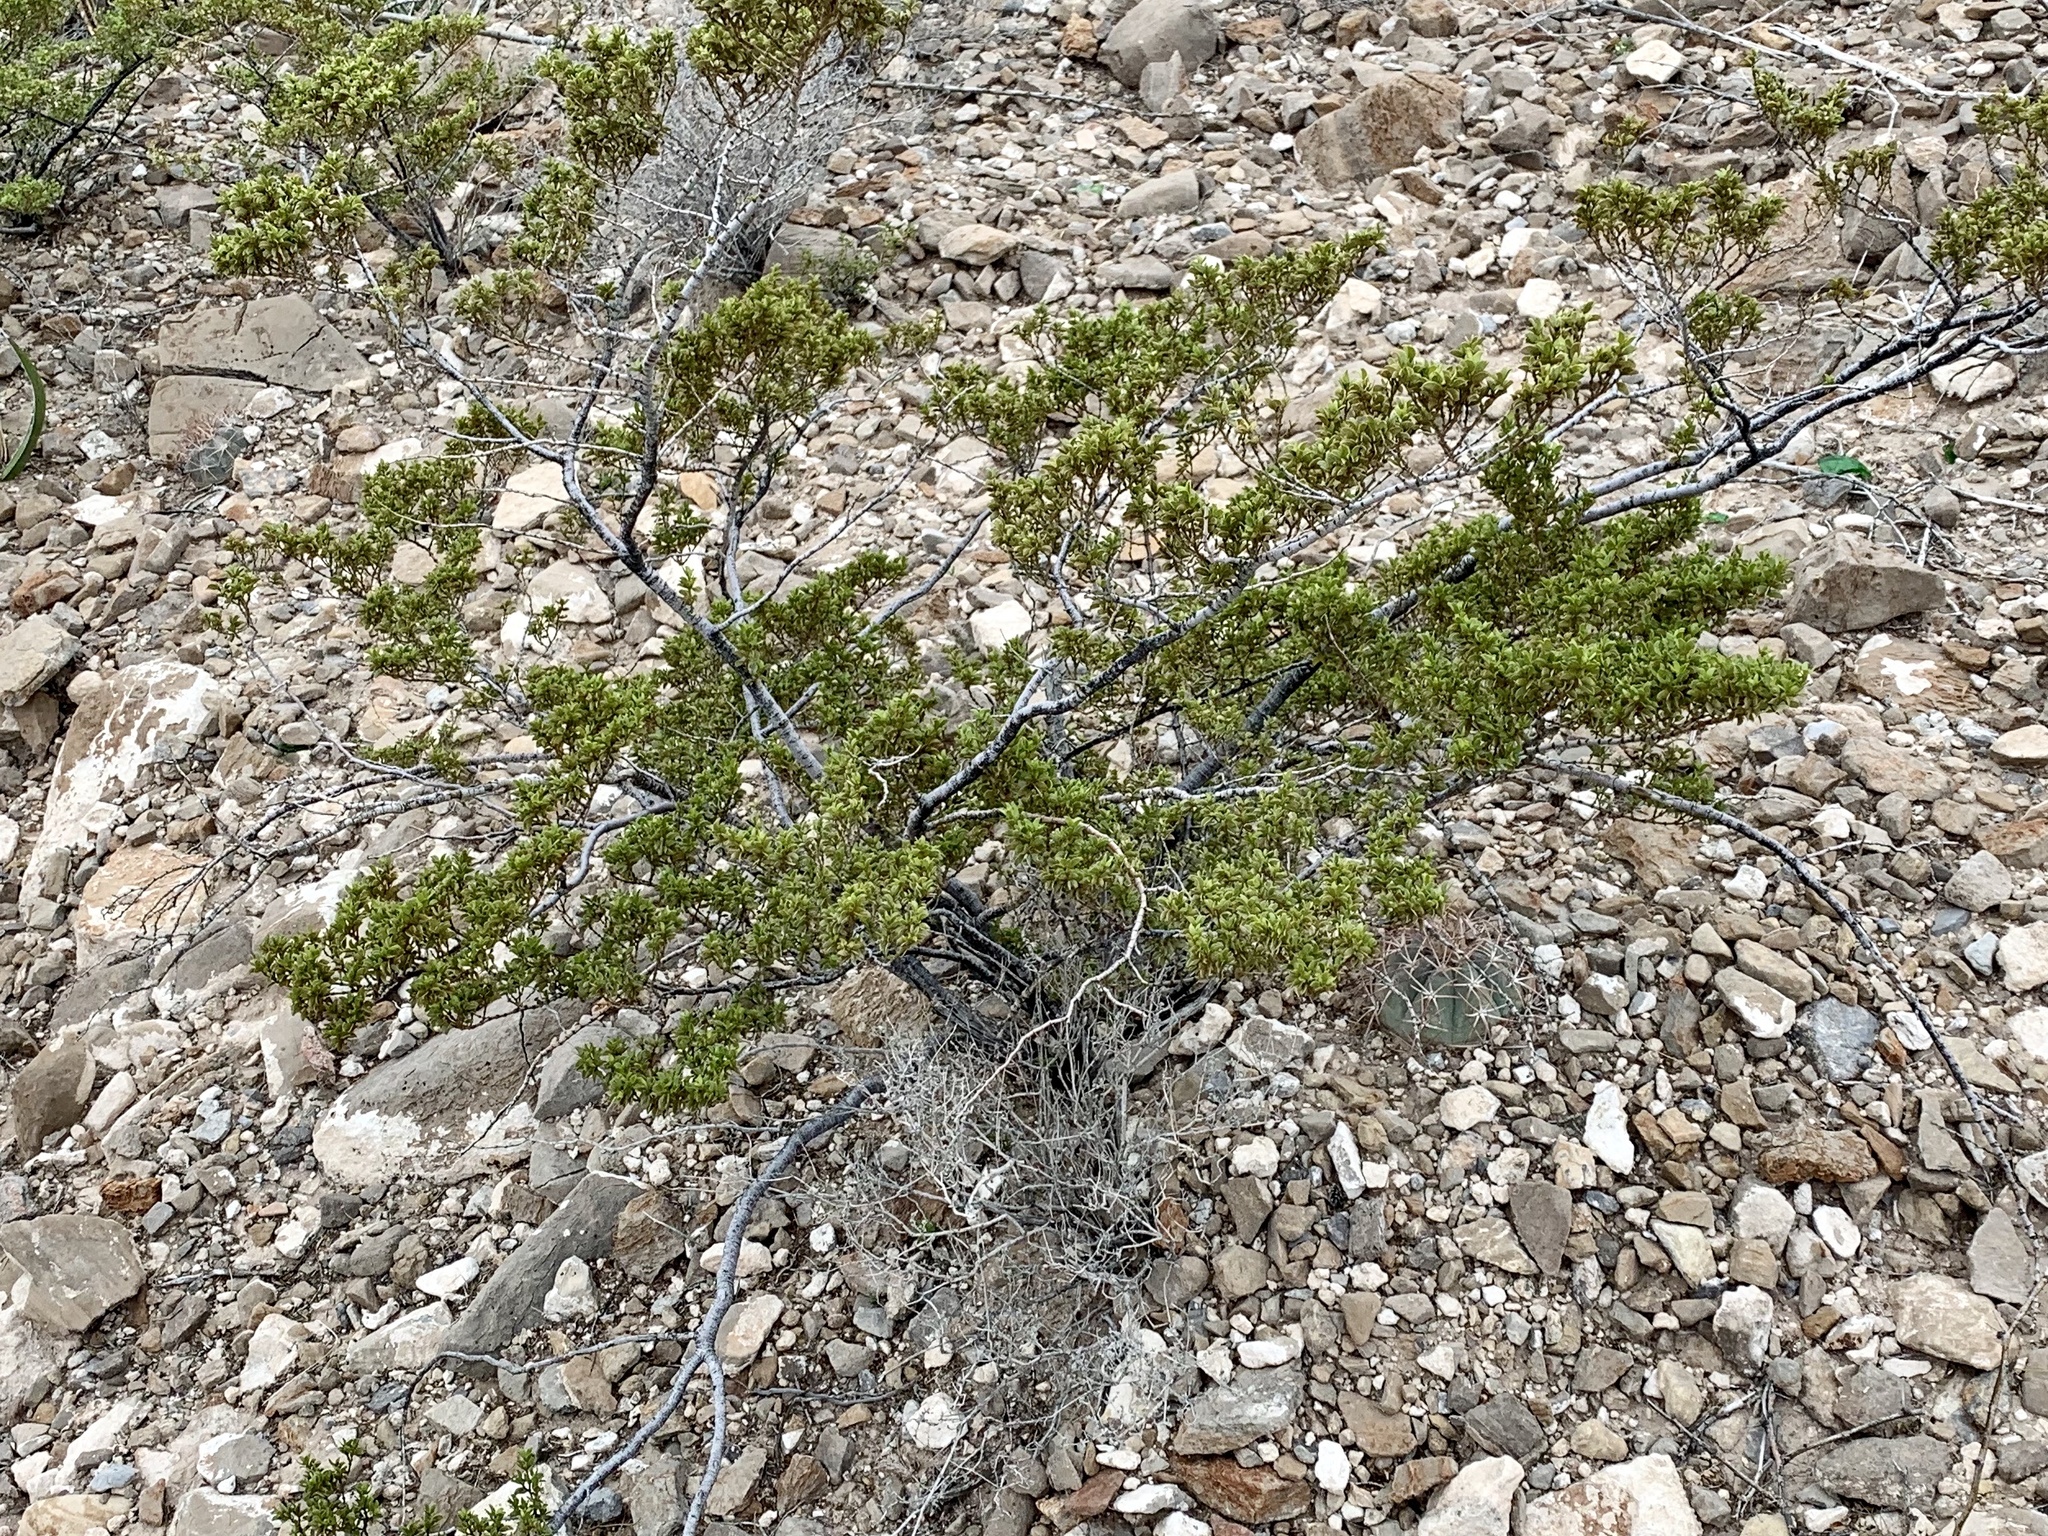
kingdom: Plantae
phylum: Tracheophyta
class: Magnoliopsida
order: Zygophyllales
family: Zygophyllaceae
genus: Larrea
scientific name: Larrea tridentata
